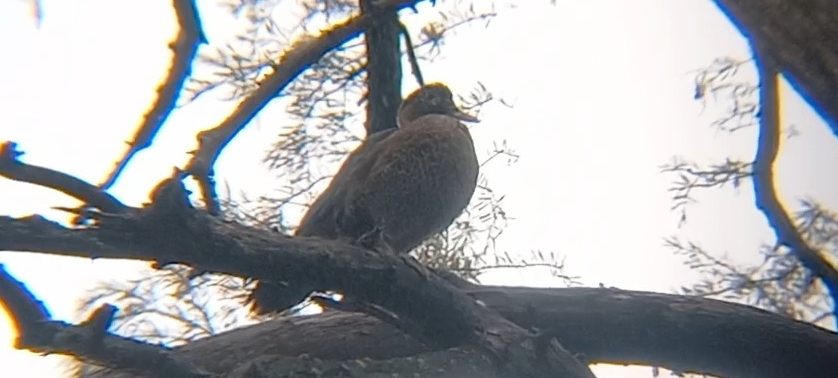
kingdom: Animalia
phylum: Chordata
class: Aves
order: Anseriformes
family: Anatidae
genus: Cairina
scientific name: Cairina moschata
